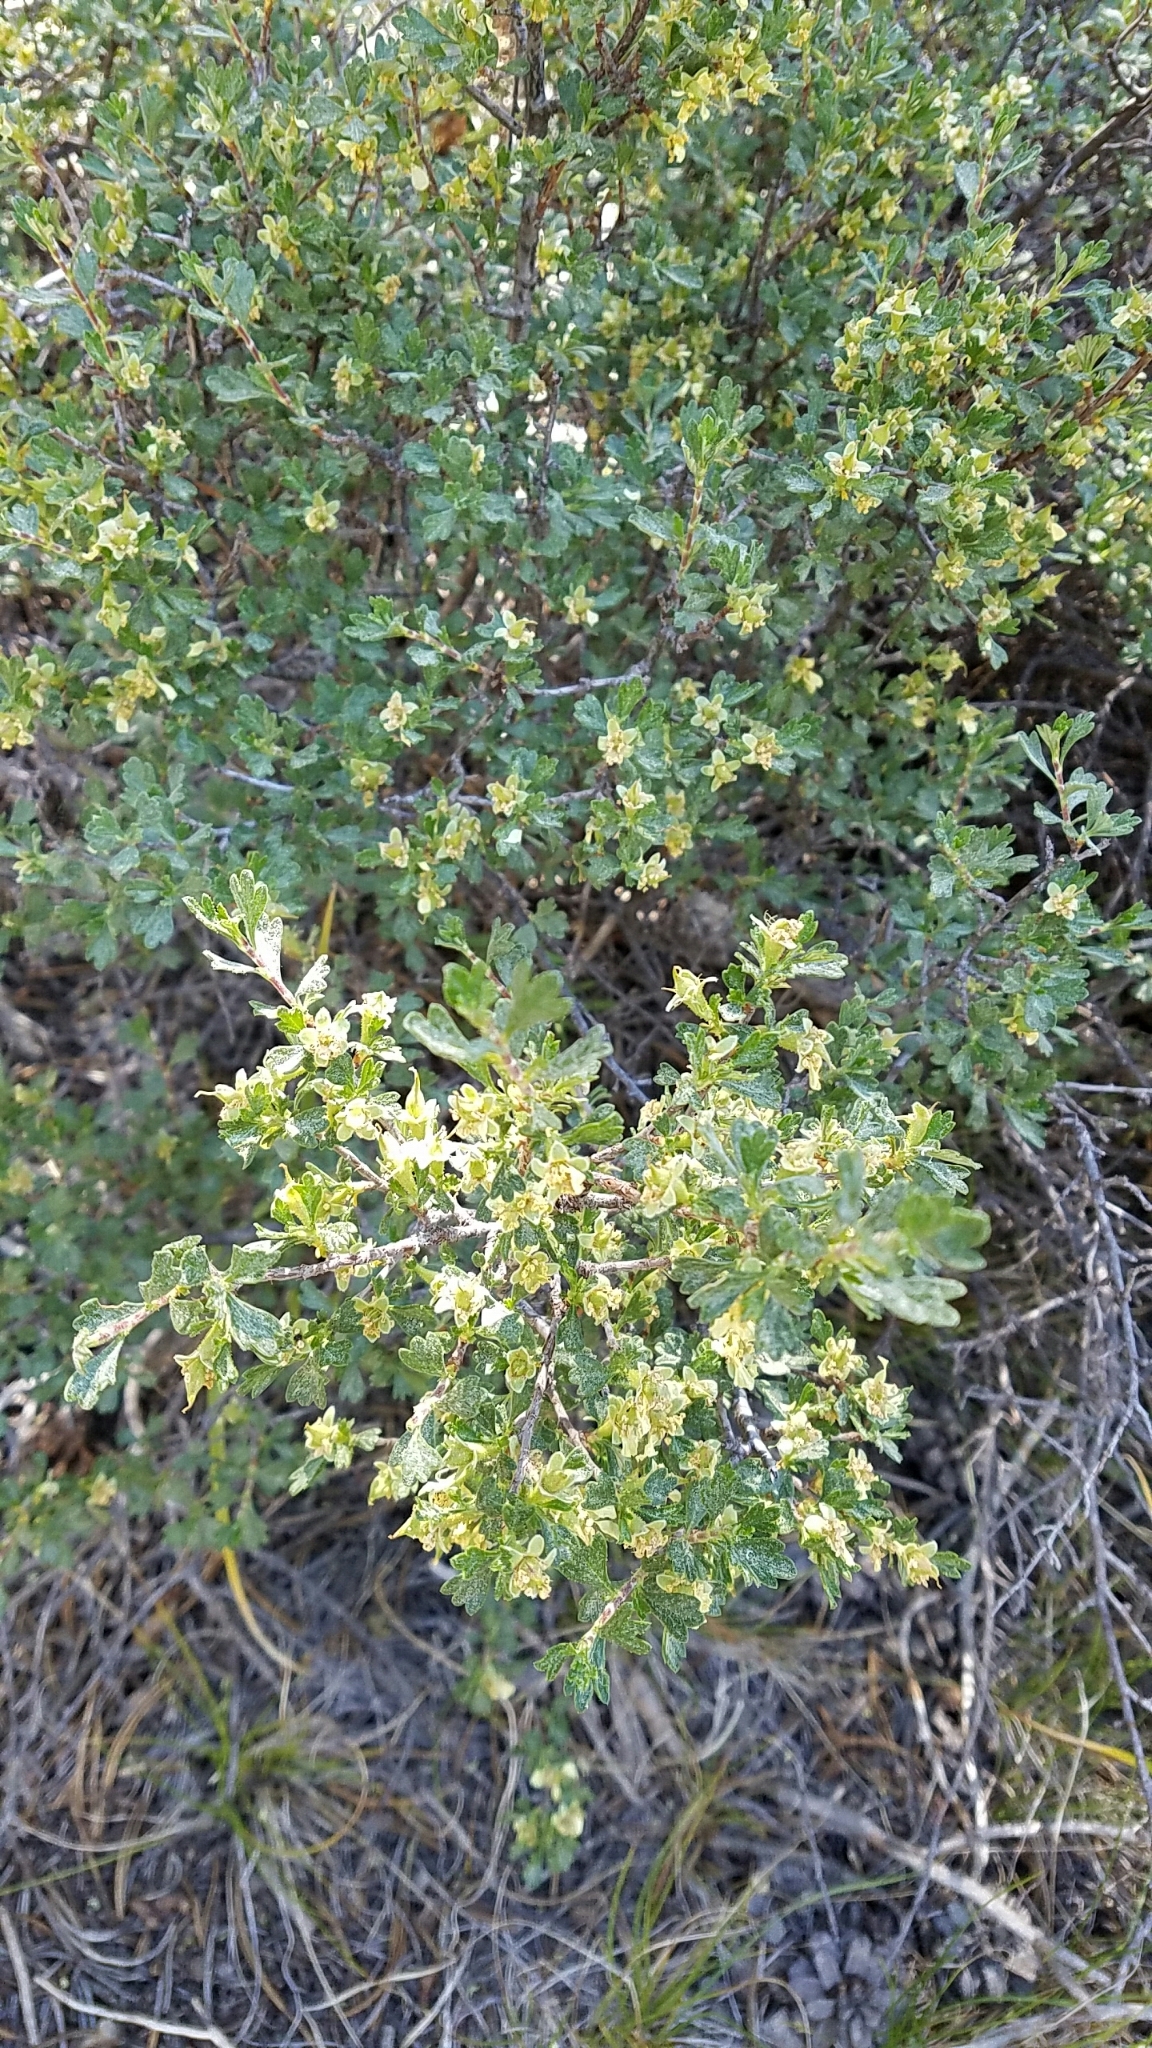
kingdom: Plantae
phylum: Tracheophyta
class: Magnoliopsida
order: Rosales
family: Rosaceae
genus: Purshia
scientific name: Purshia tridentata
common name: Antelope bitterbrush
